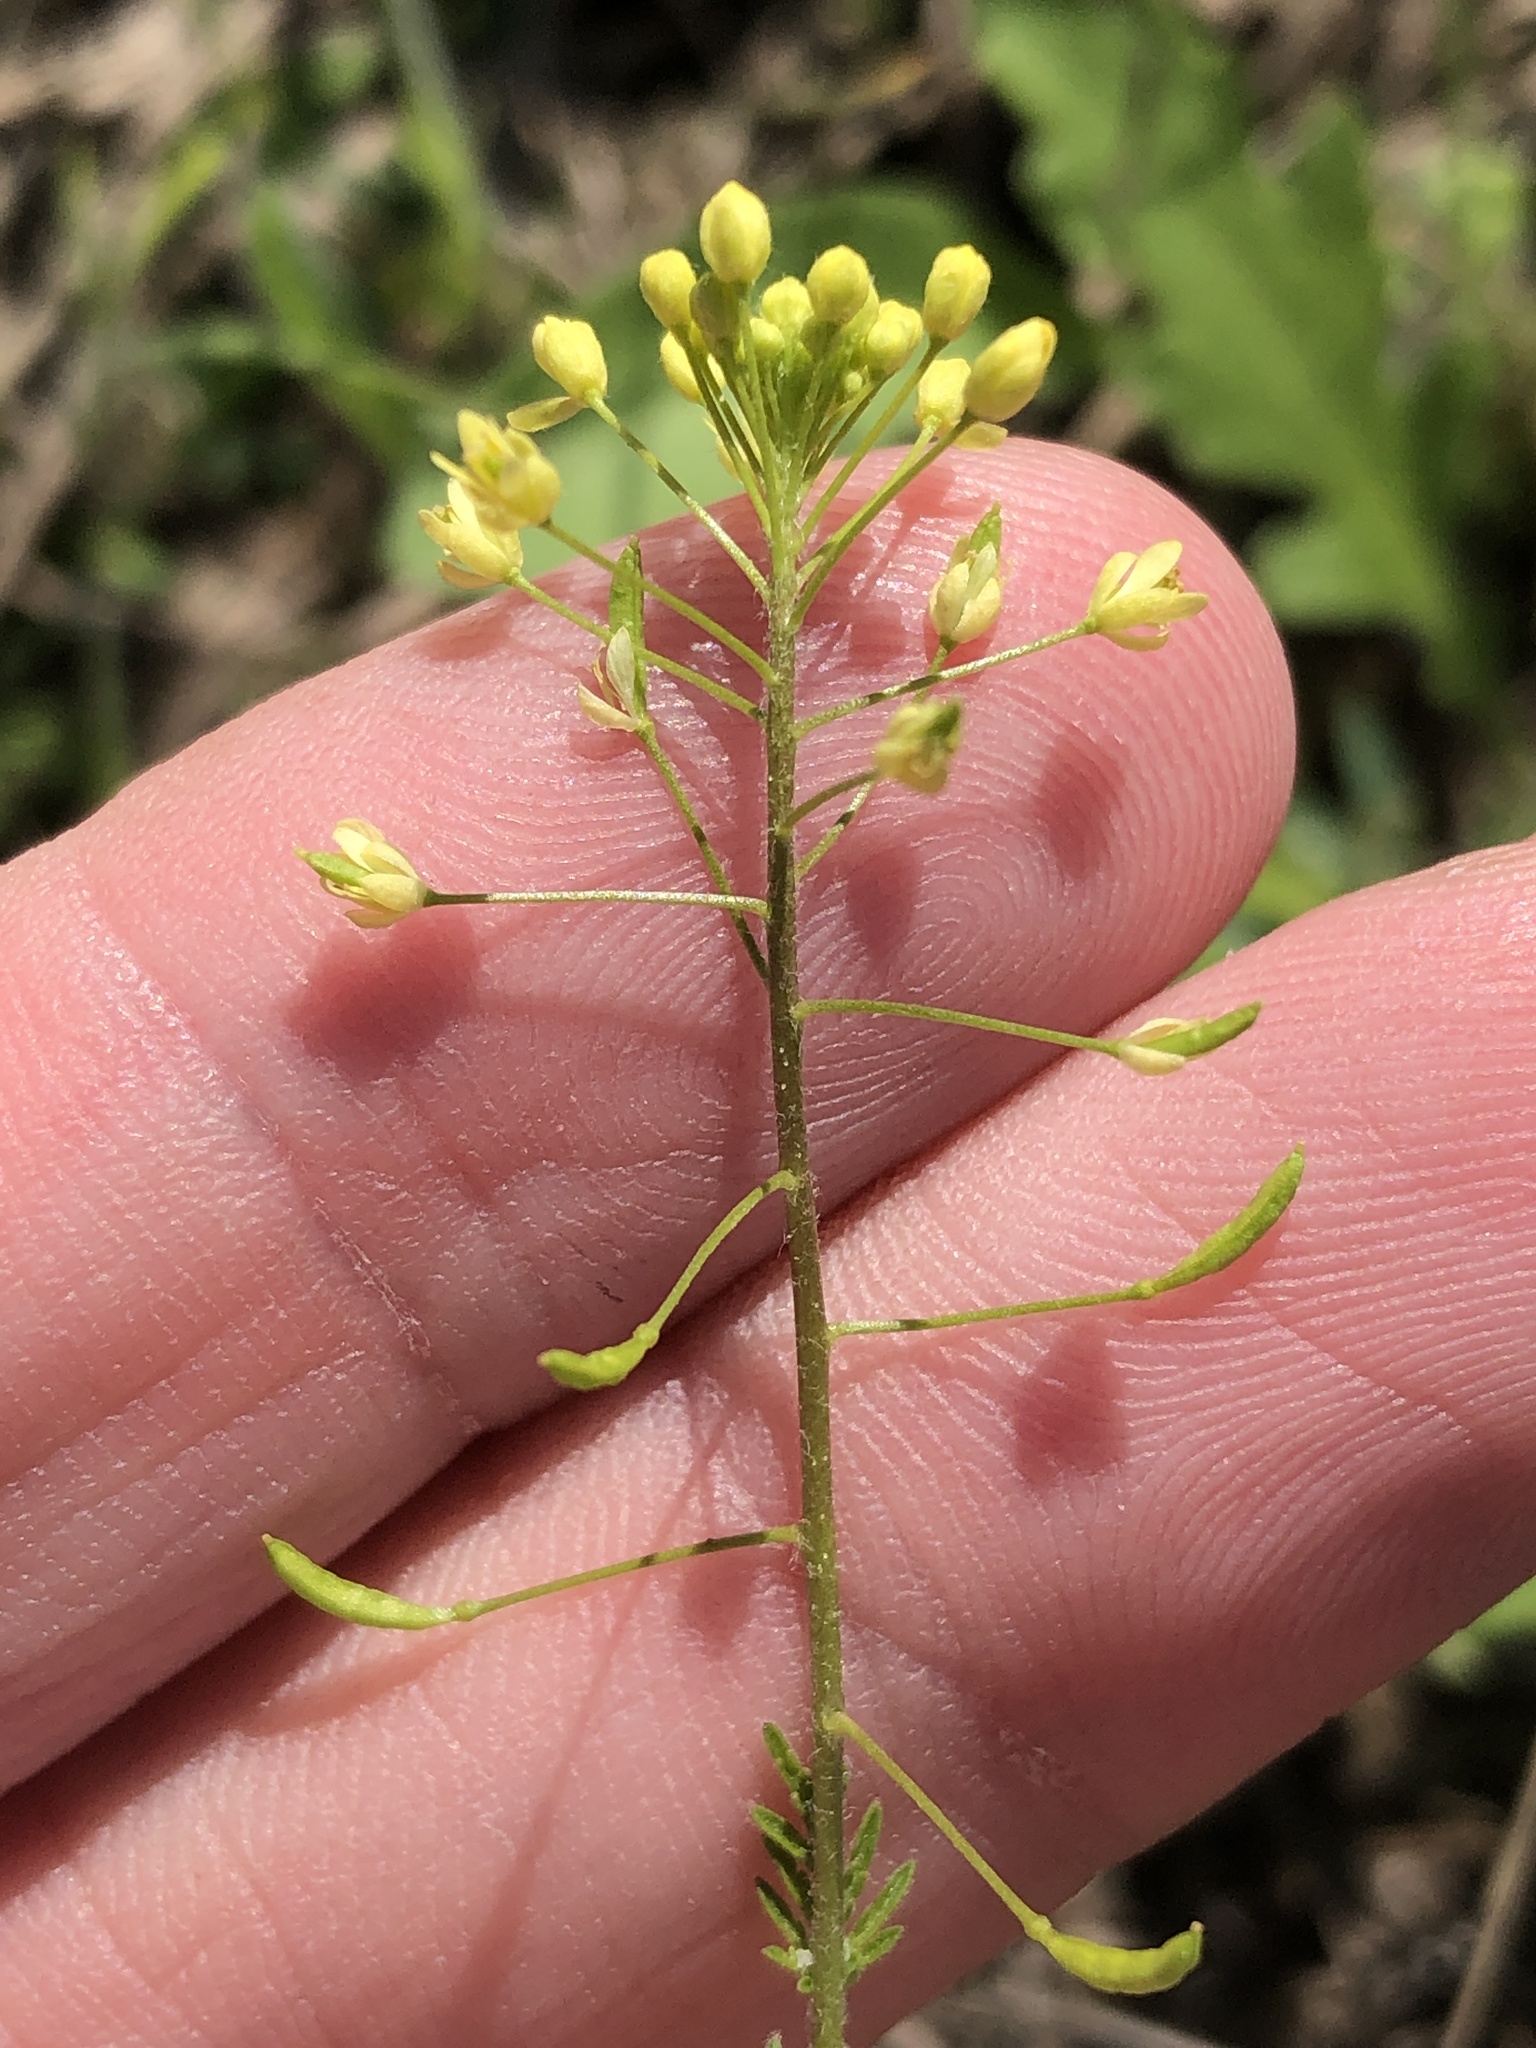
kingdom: Plantae
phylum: Tracheophyta
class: Magnoliopsida
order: Brassicales
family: Brassicaceae
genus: Descurainia
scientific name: Descurainia pinnata
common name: Western tansy mustard
